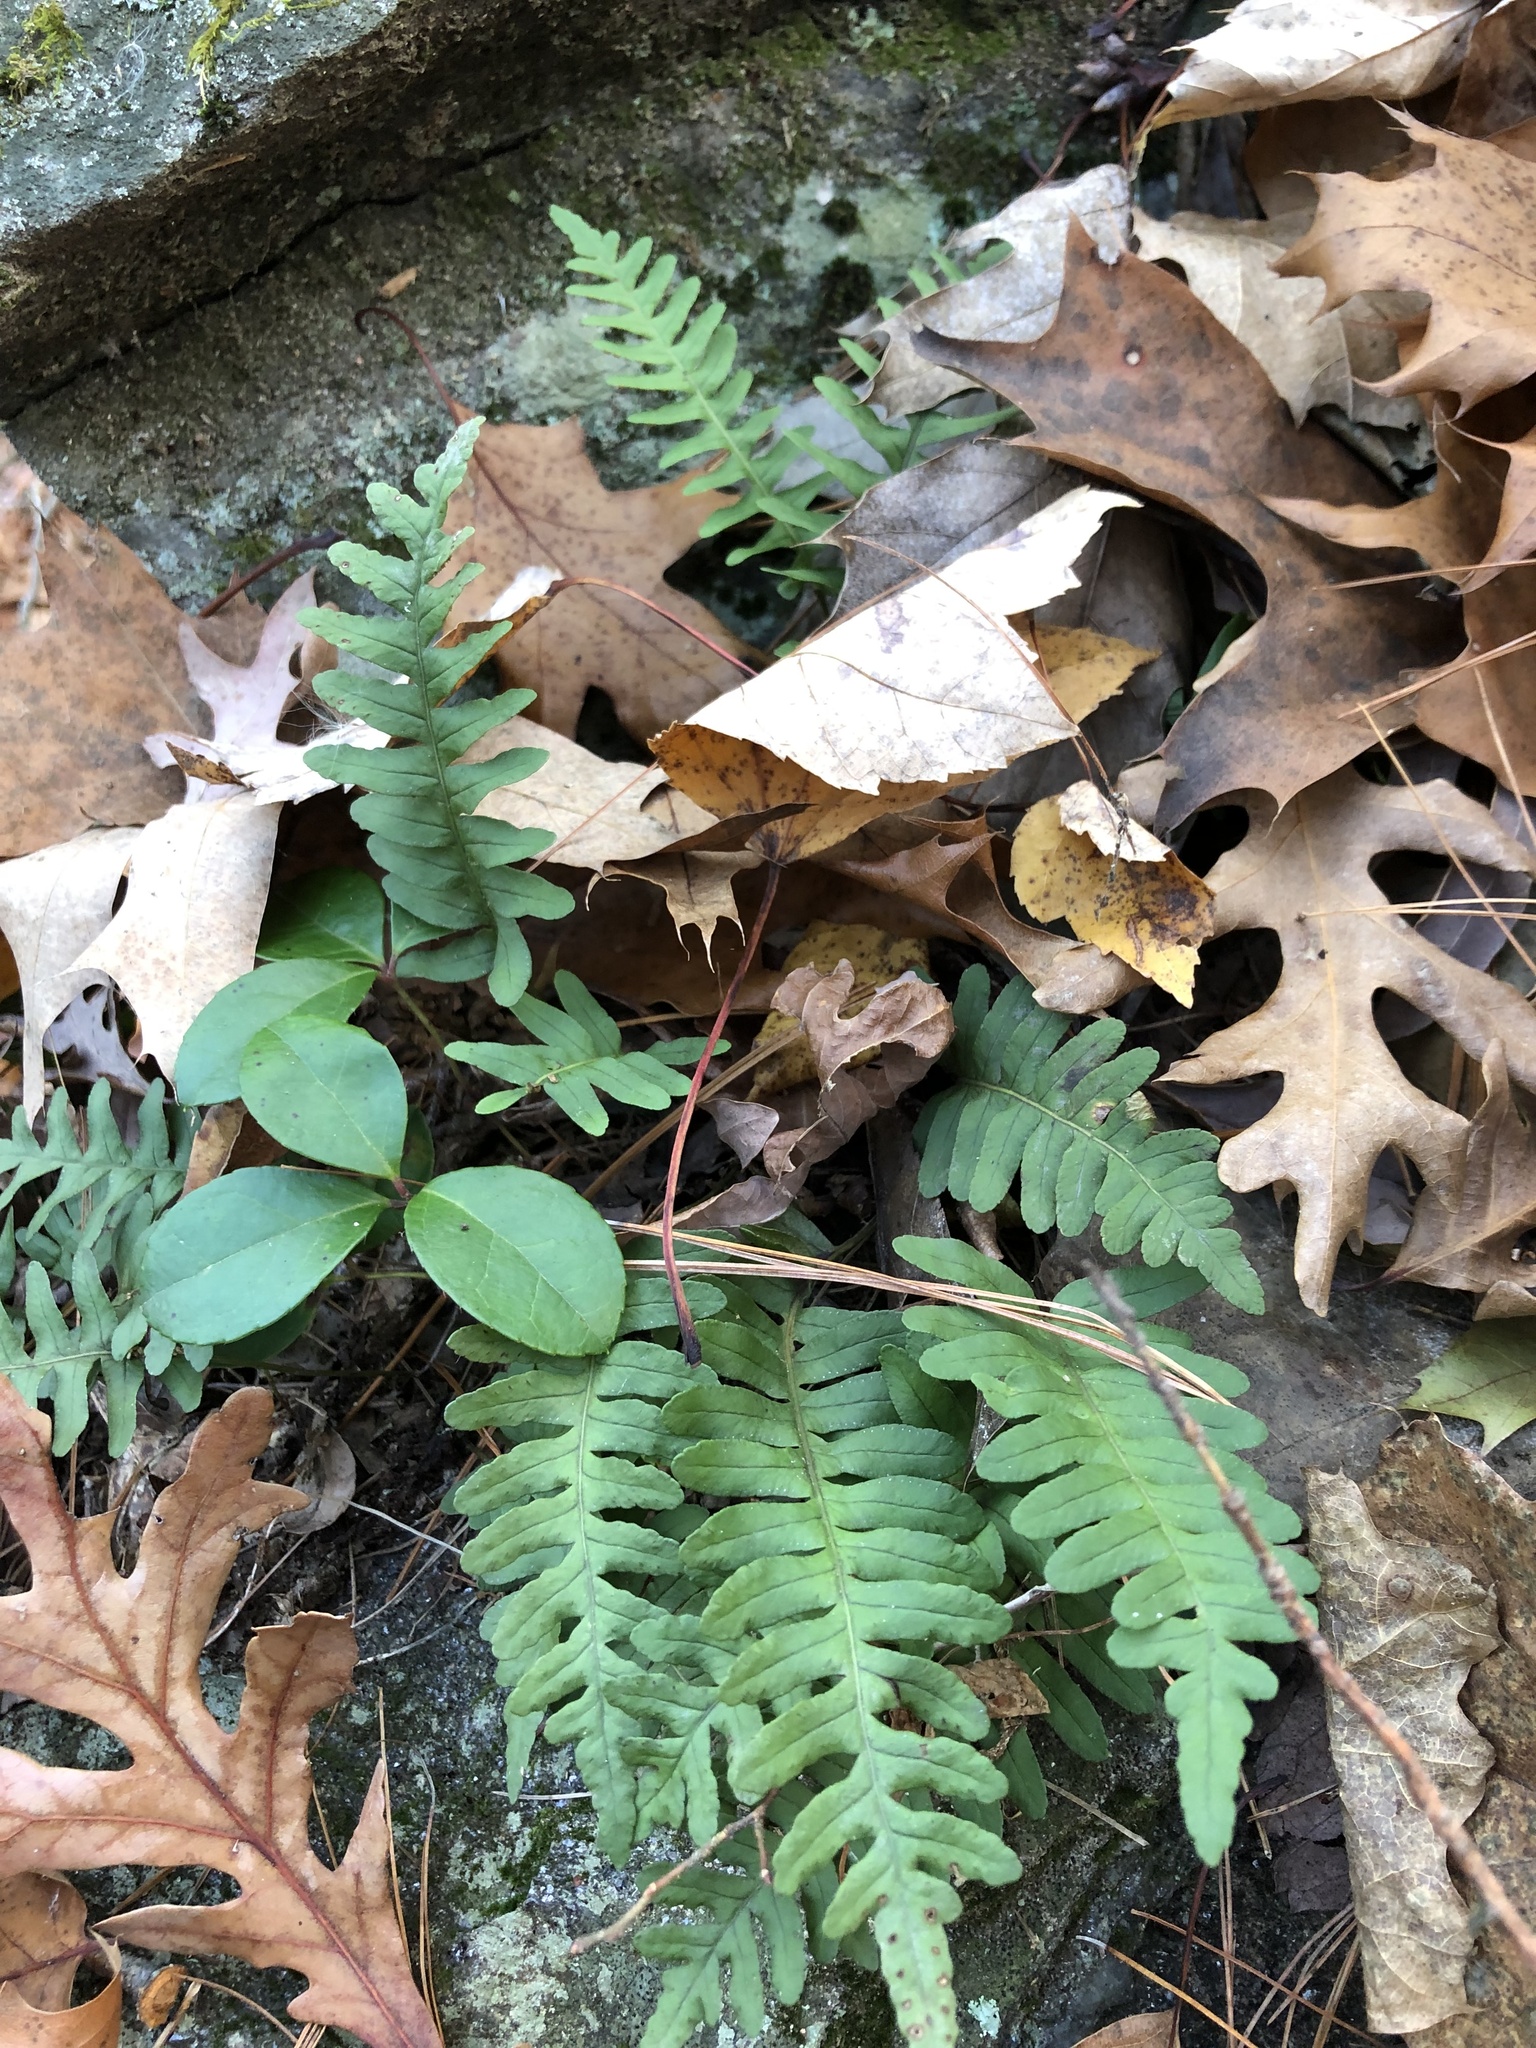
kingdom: Plantae
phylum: Tracheophyta
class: Polypodiopsida
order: Polypodiales
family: Polypodiaceae
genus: Polypodium
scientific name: Polypodium virginianum
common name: American wall fern
